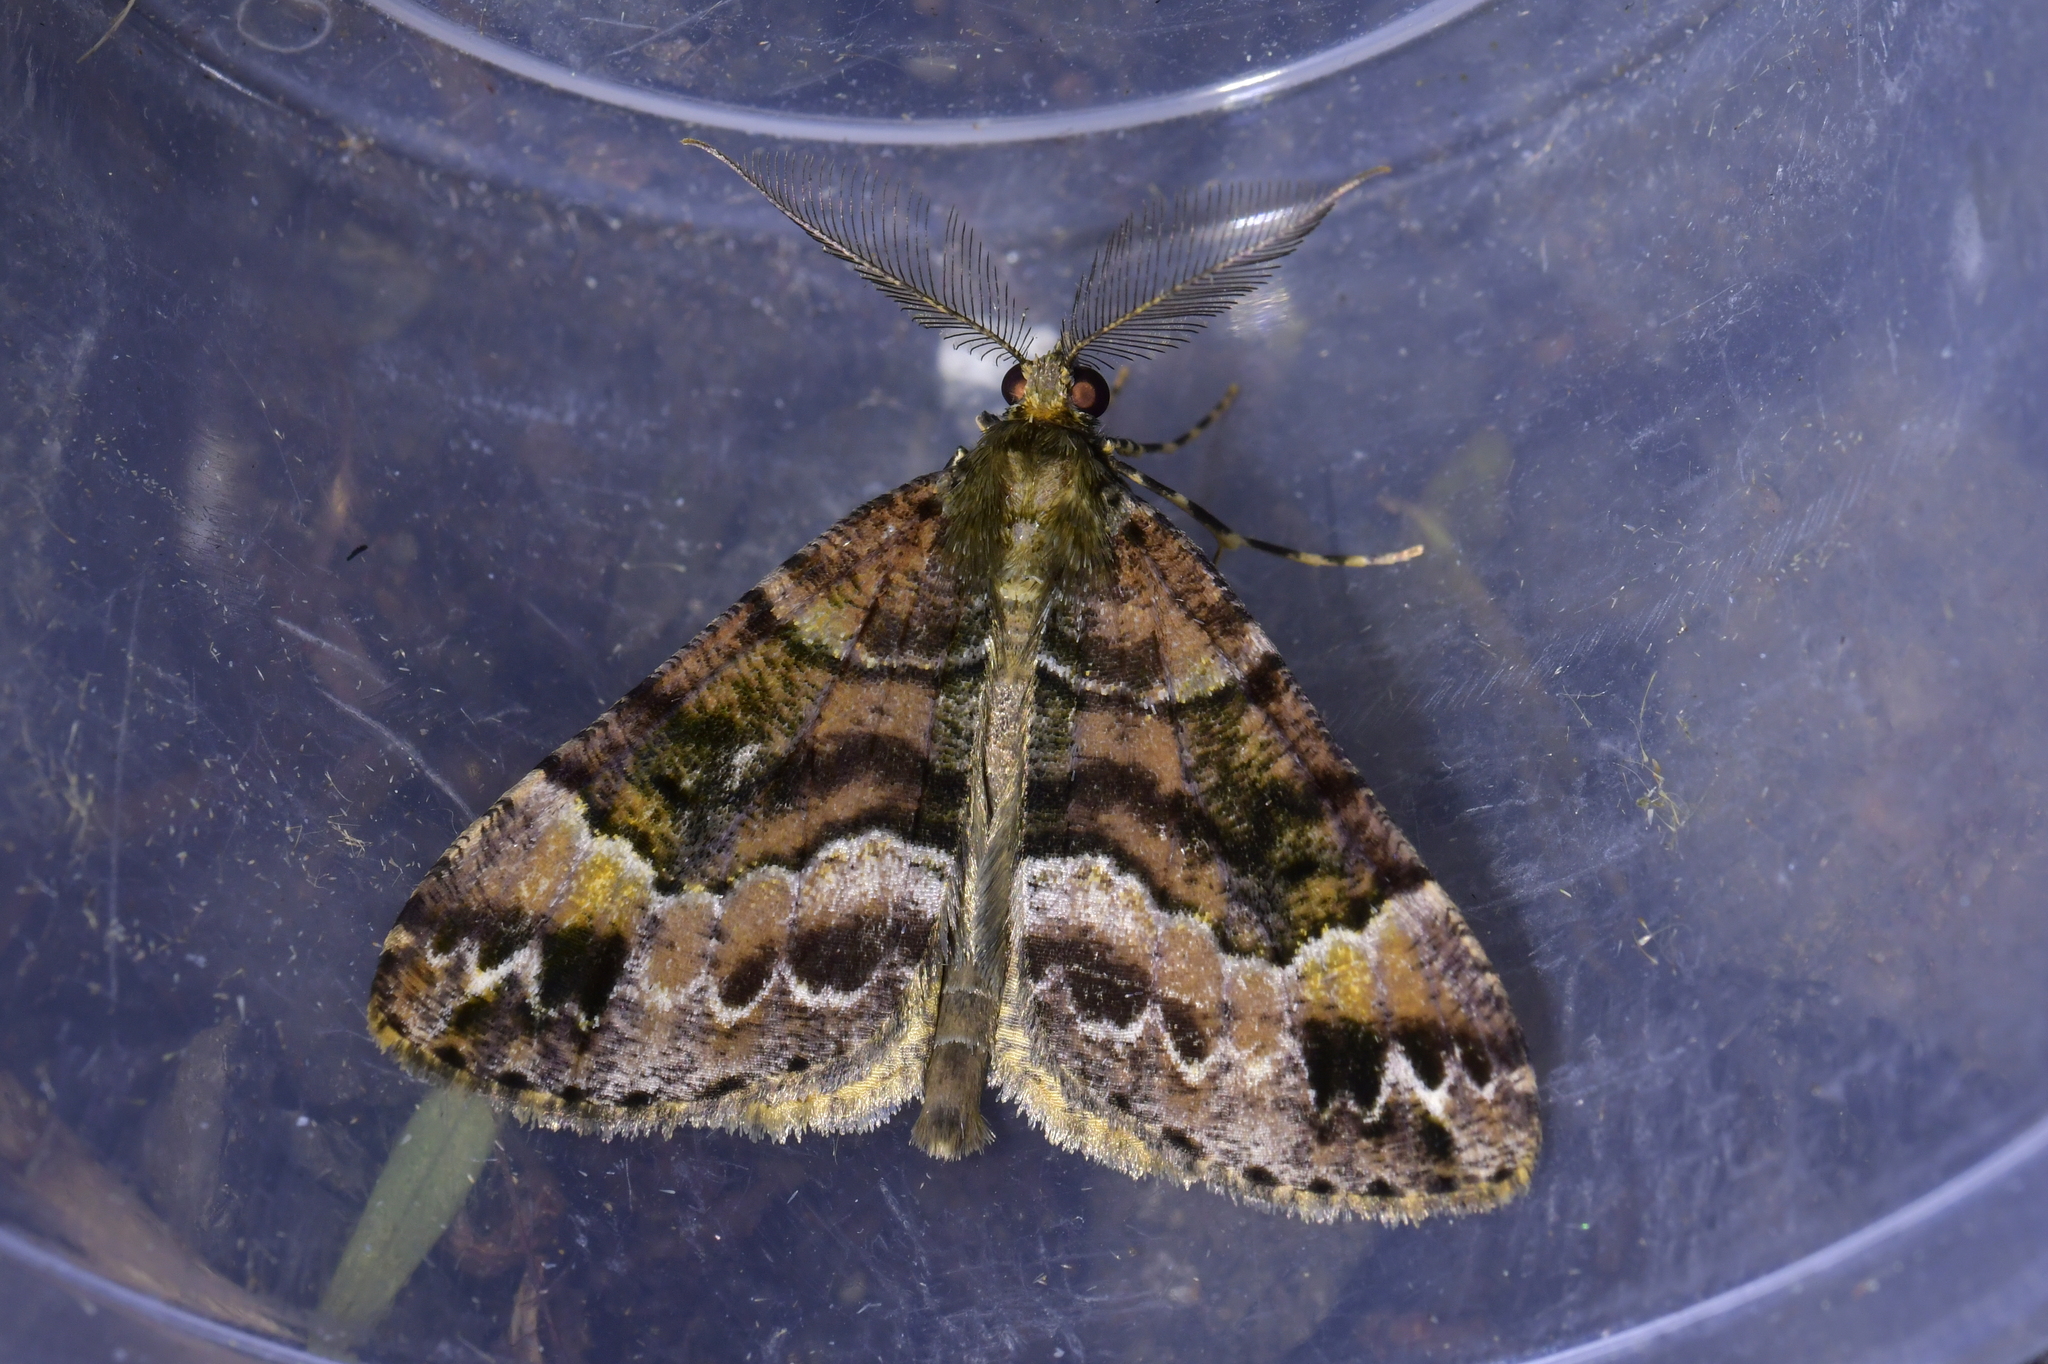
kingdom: Animalia
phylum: Arthropoda
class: Insecta
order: Lepidoptera
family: Geometridae
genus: Pseudocoremia
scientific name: Pseudocoremia productata
